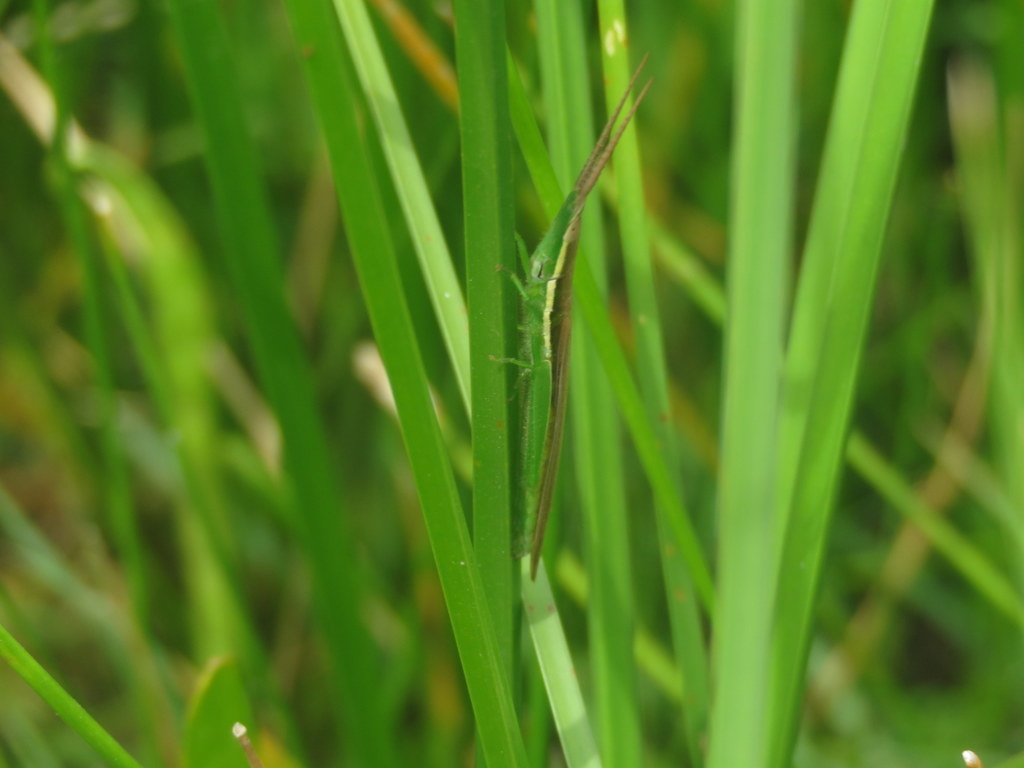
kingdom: Animalia
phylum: Arthropoda
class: Insecta
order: Orthoptera
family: Acrididae
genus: Leptysma
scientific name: Leptysma argentina
